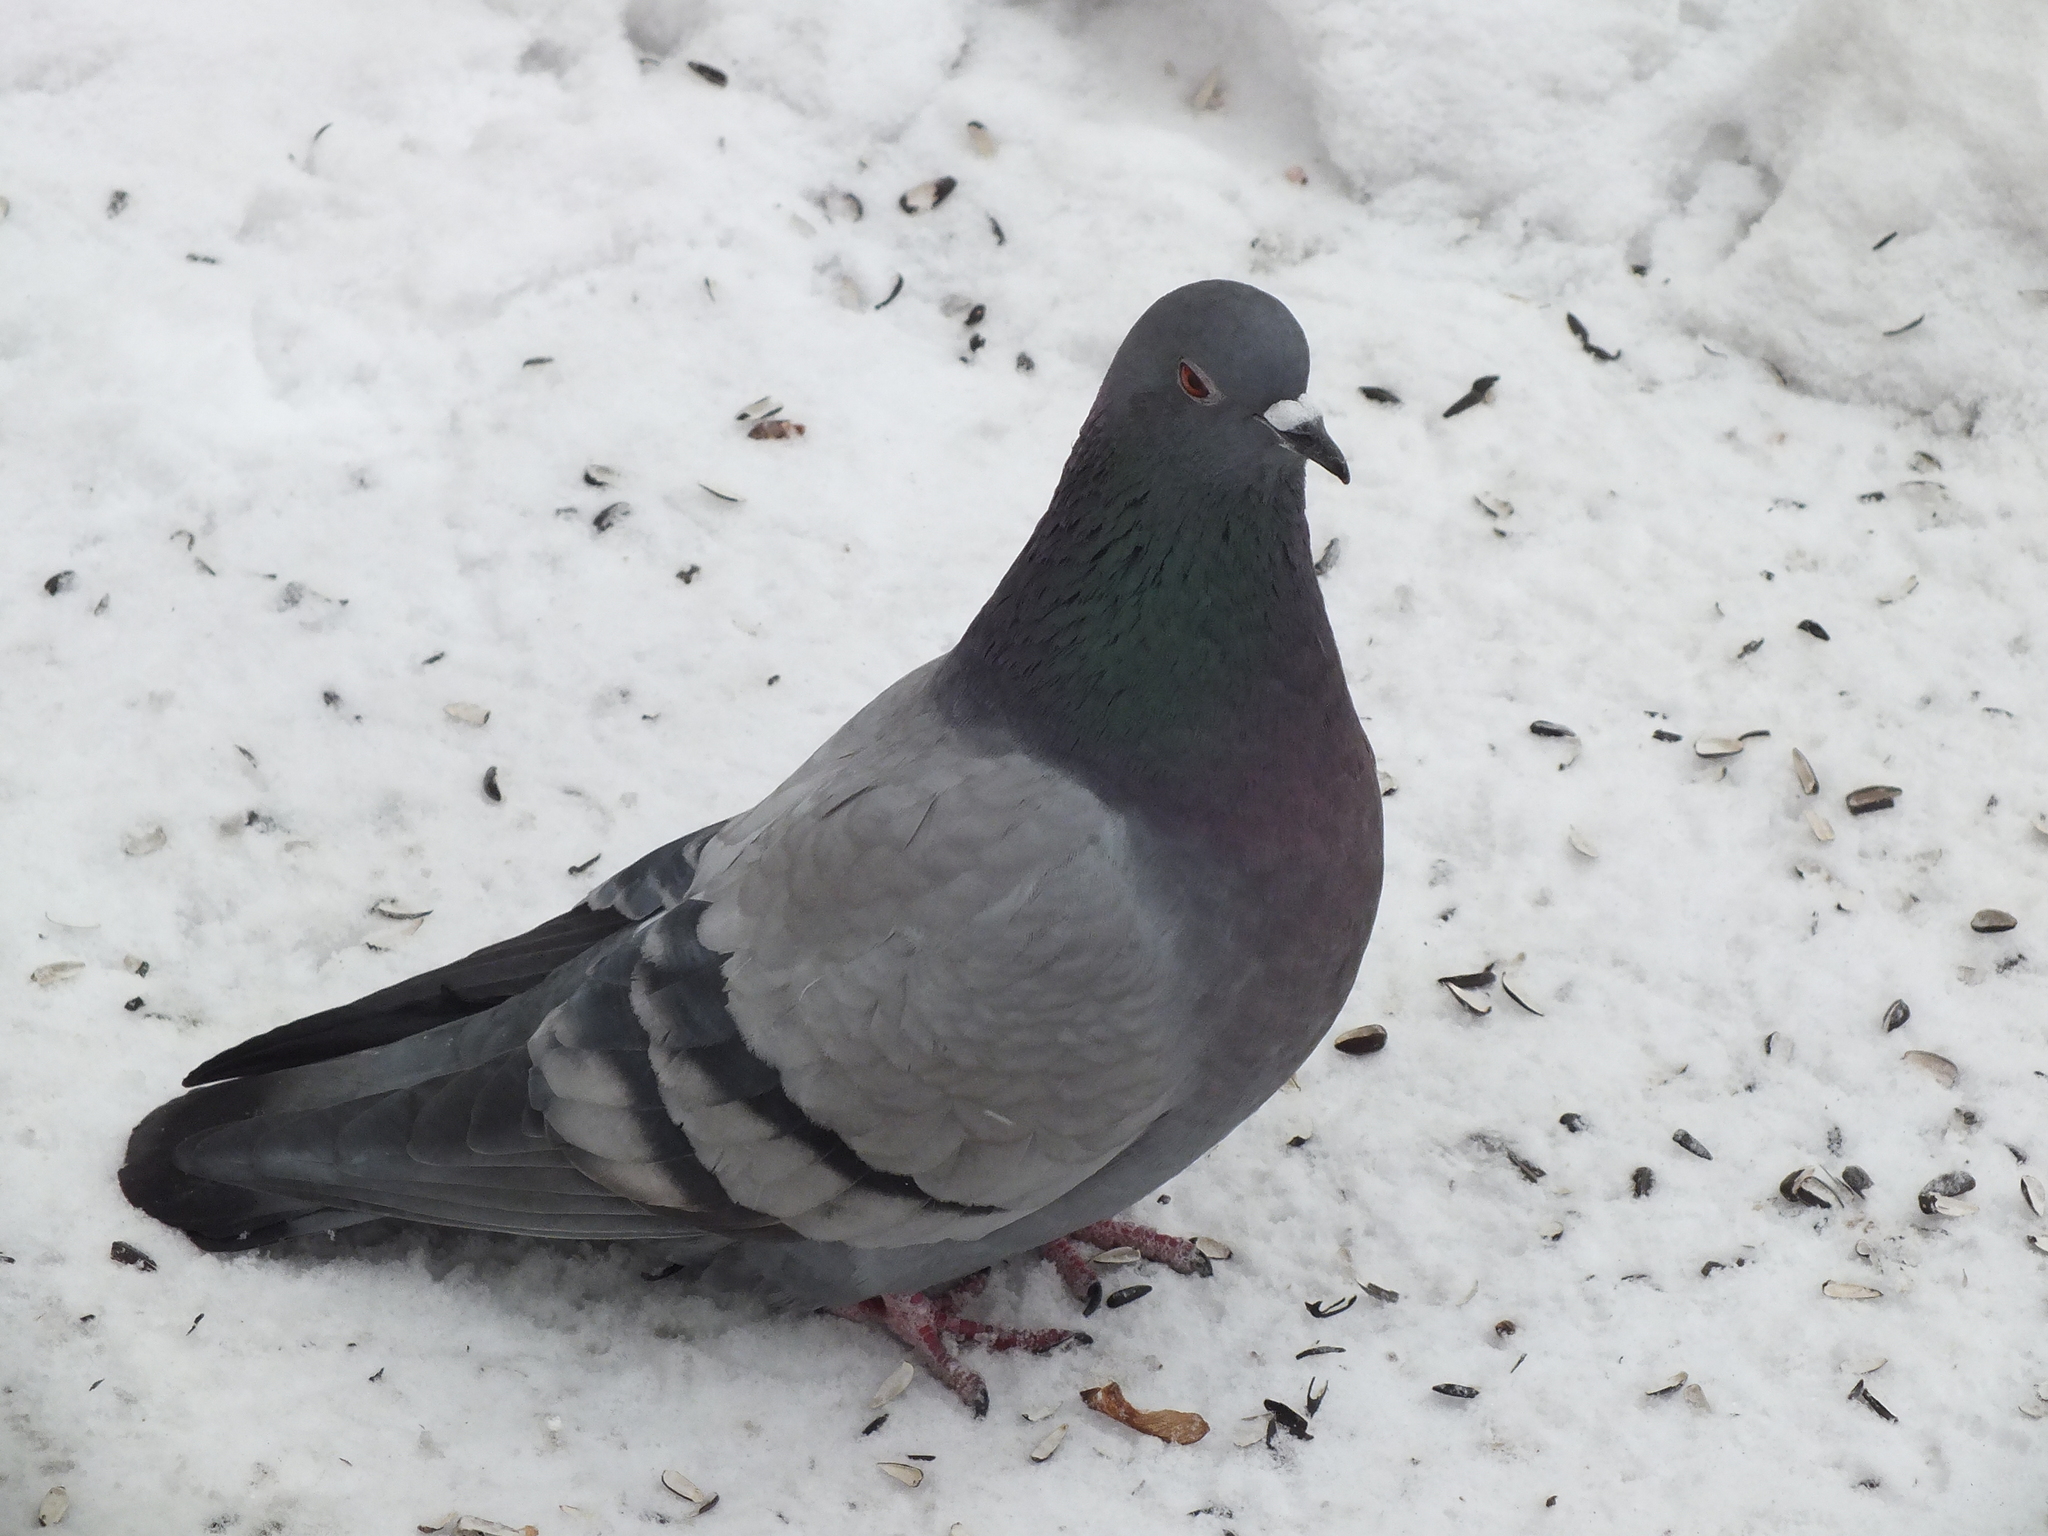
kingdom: Animalia
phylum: Chordata
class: Aves
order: Columbiformes
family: Columbidae
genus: Columba
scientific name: Columba livia
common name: Rock pigeon
